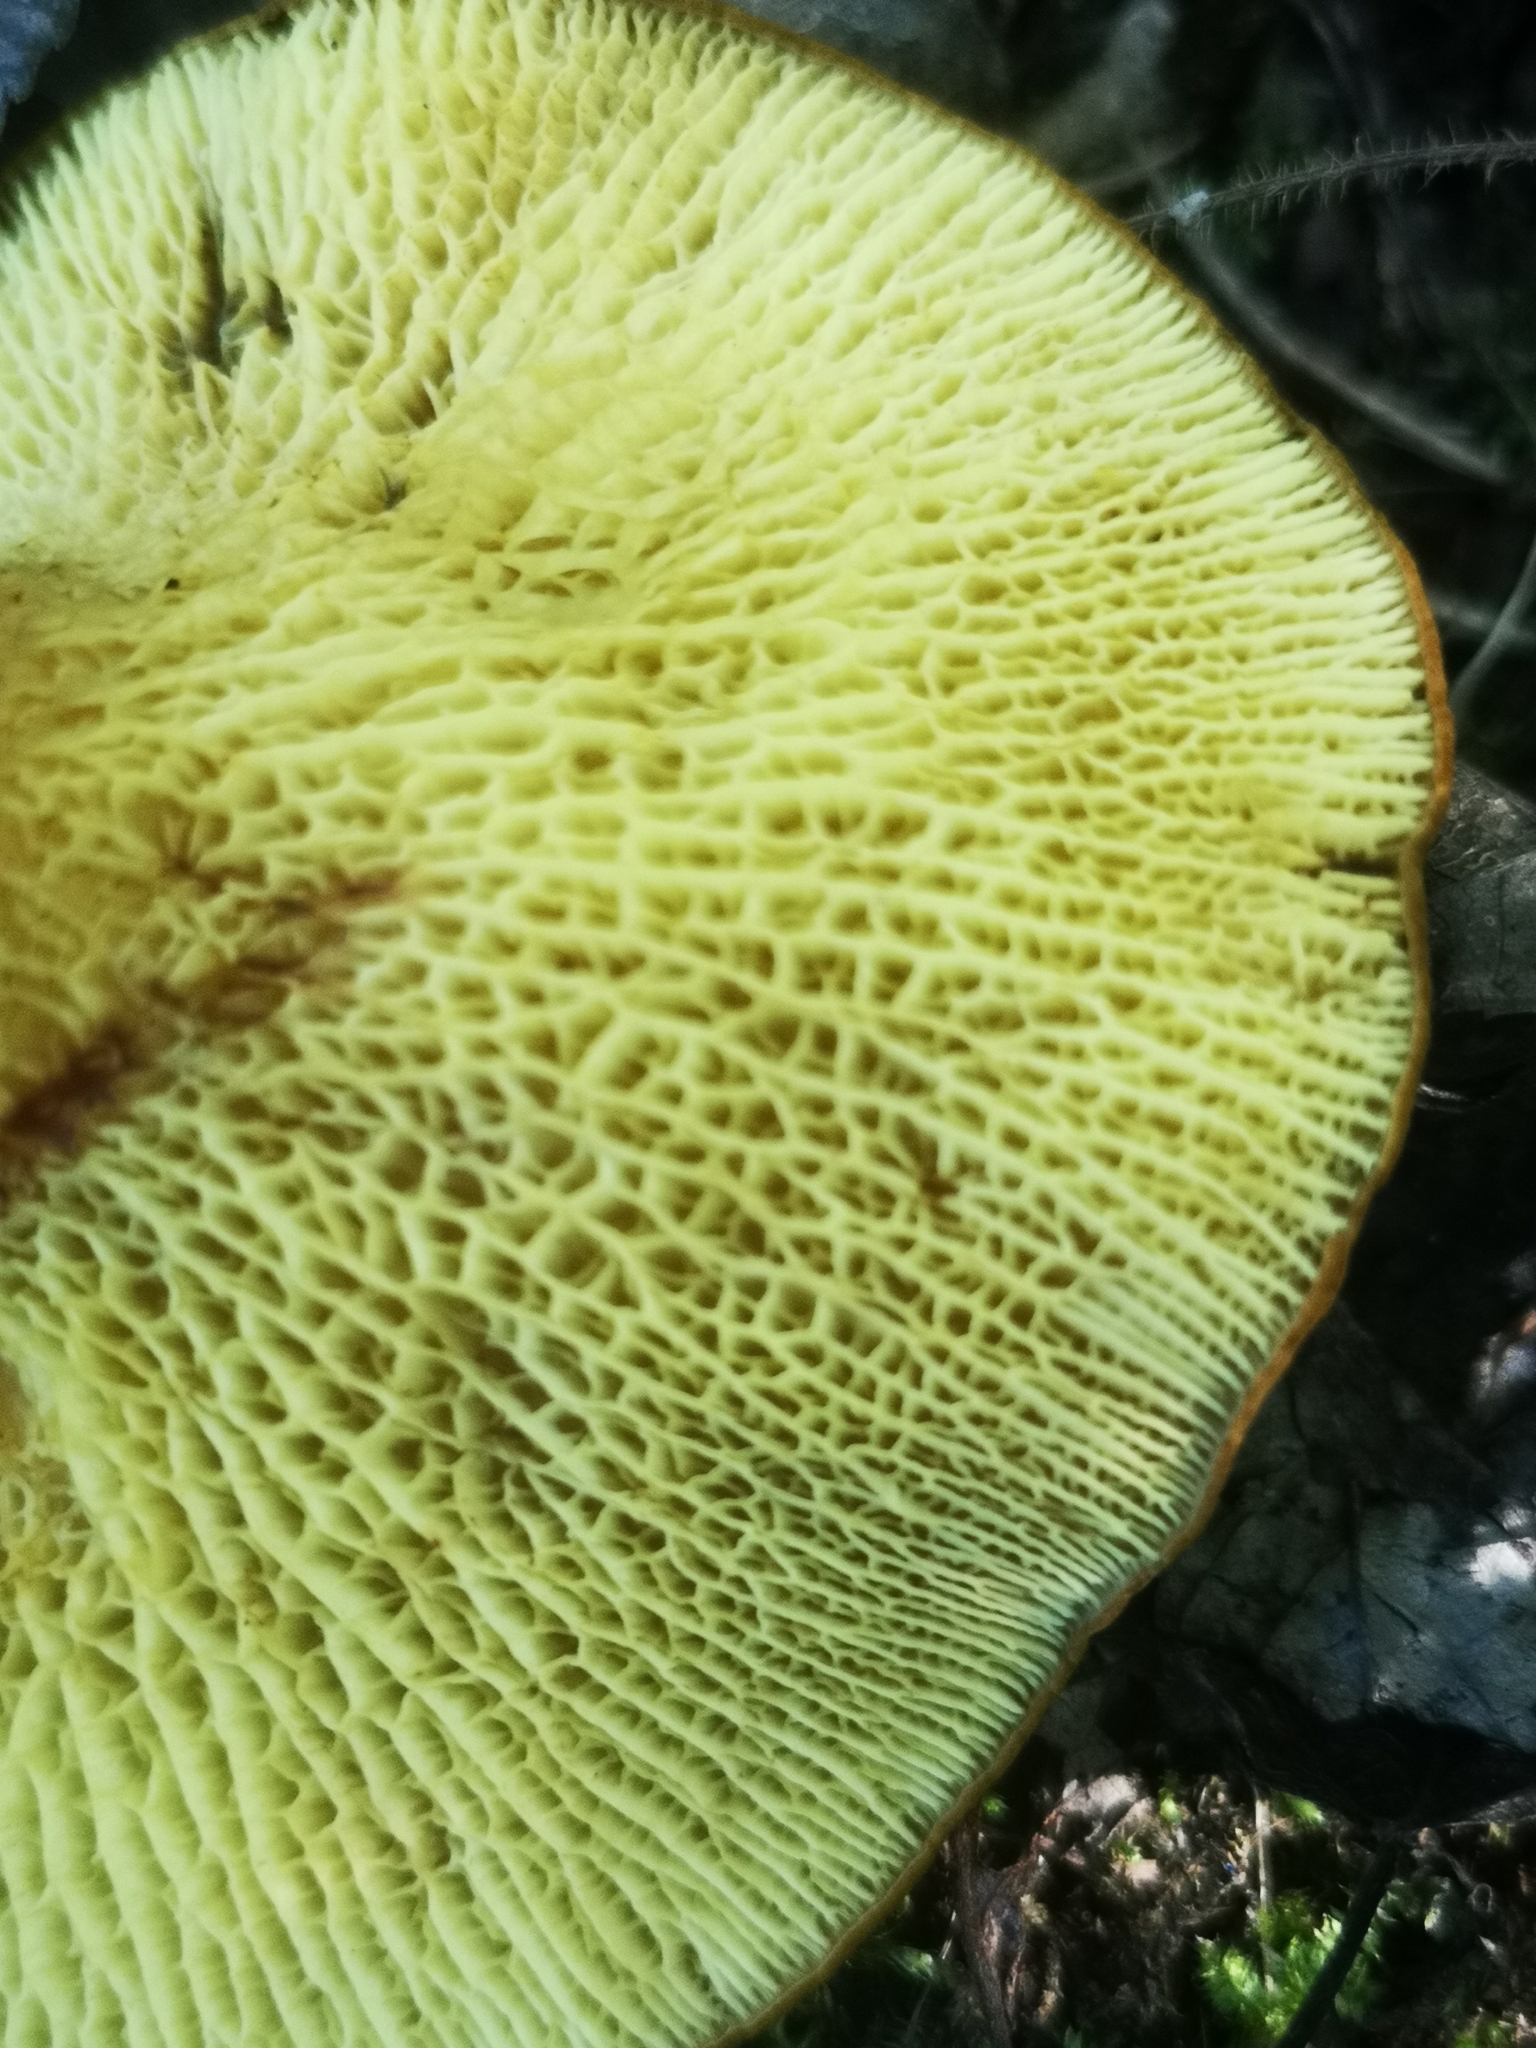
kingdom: Fungi
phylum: Basidiomycota
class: Agaricomycetes
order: Boletales
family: Boletinellaceae
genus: Boletinellus
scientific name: Boletinellus merulioides
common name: Ash tree bolete
